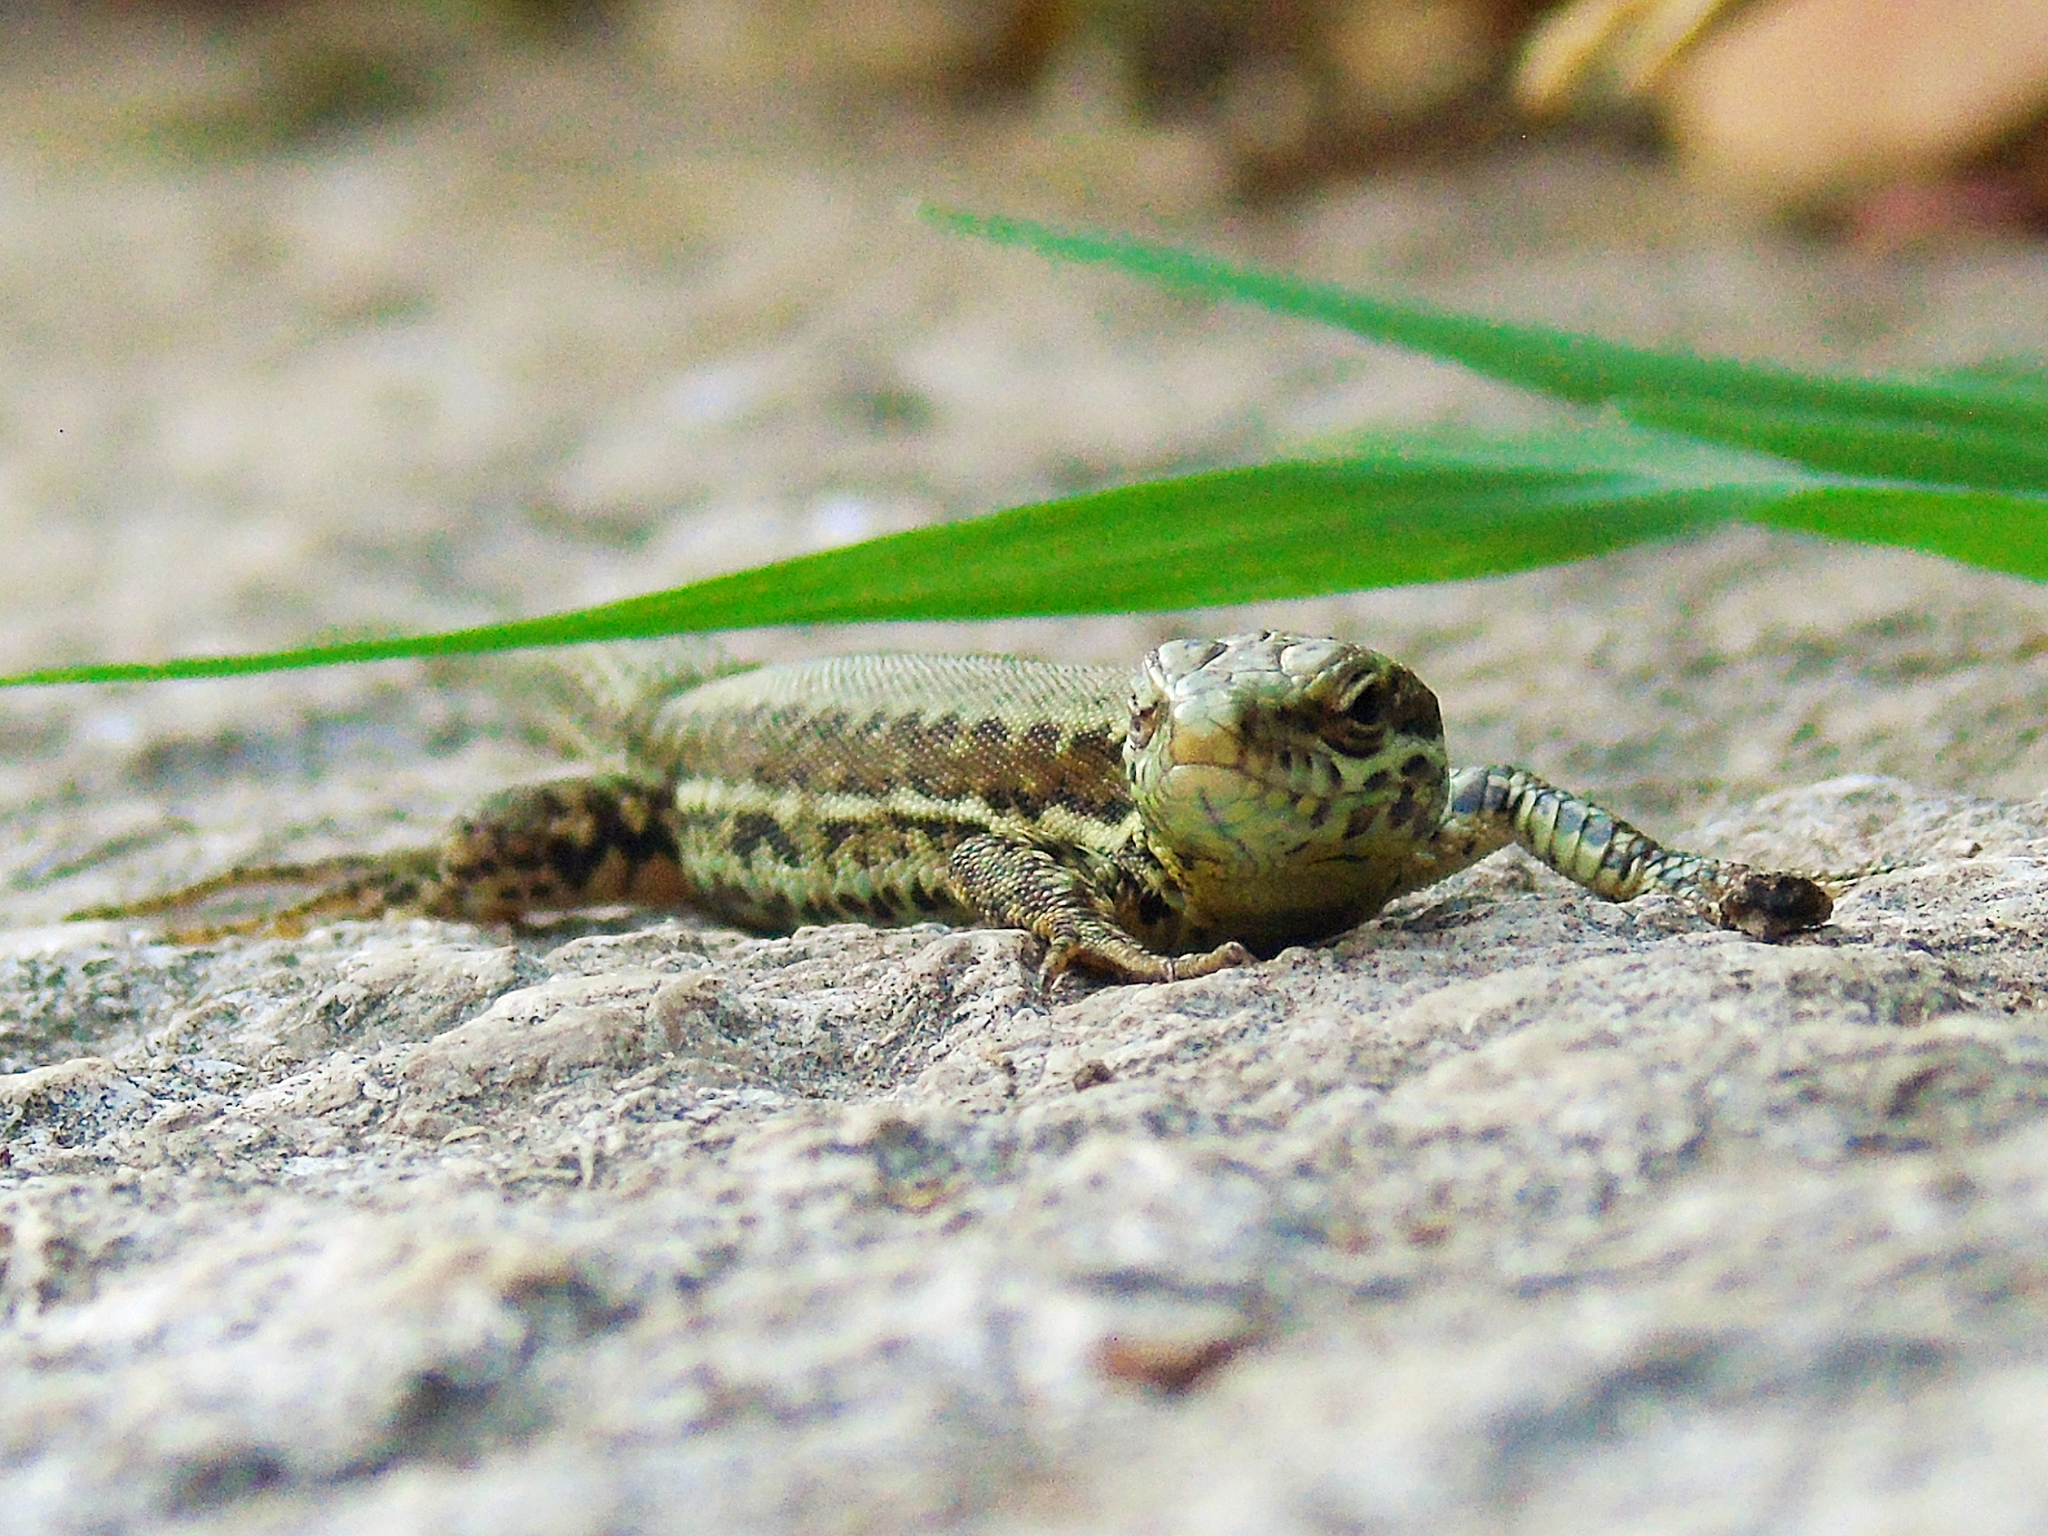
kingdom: Animalia
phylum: Chordata
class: Squamata
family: Lacertidae
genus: Podarcis
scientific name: Podarcis muralis
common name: Common wall lizard
